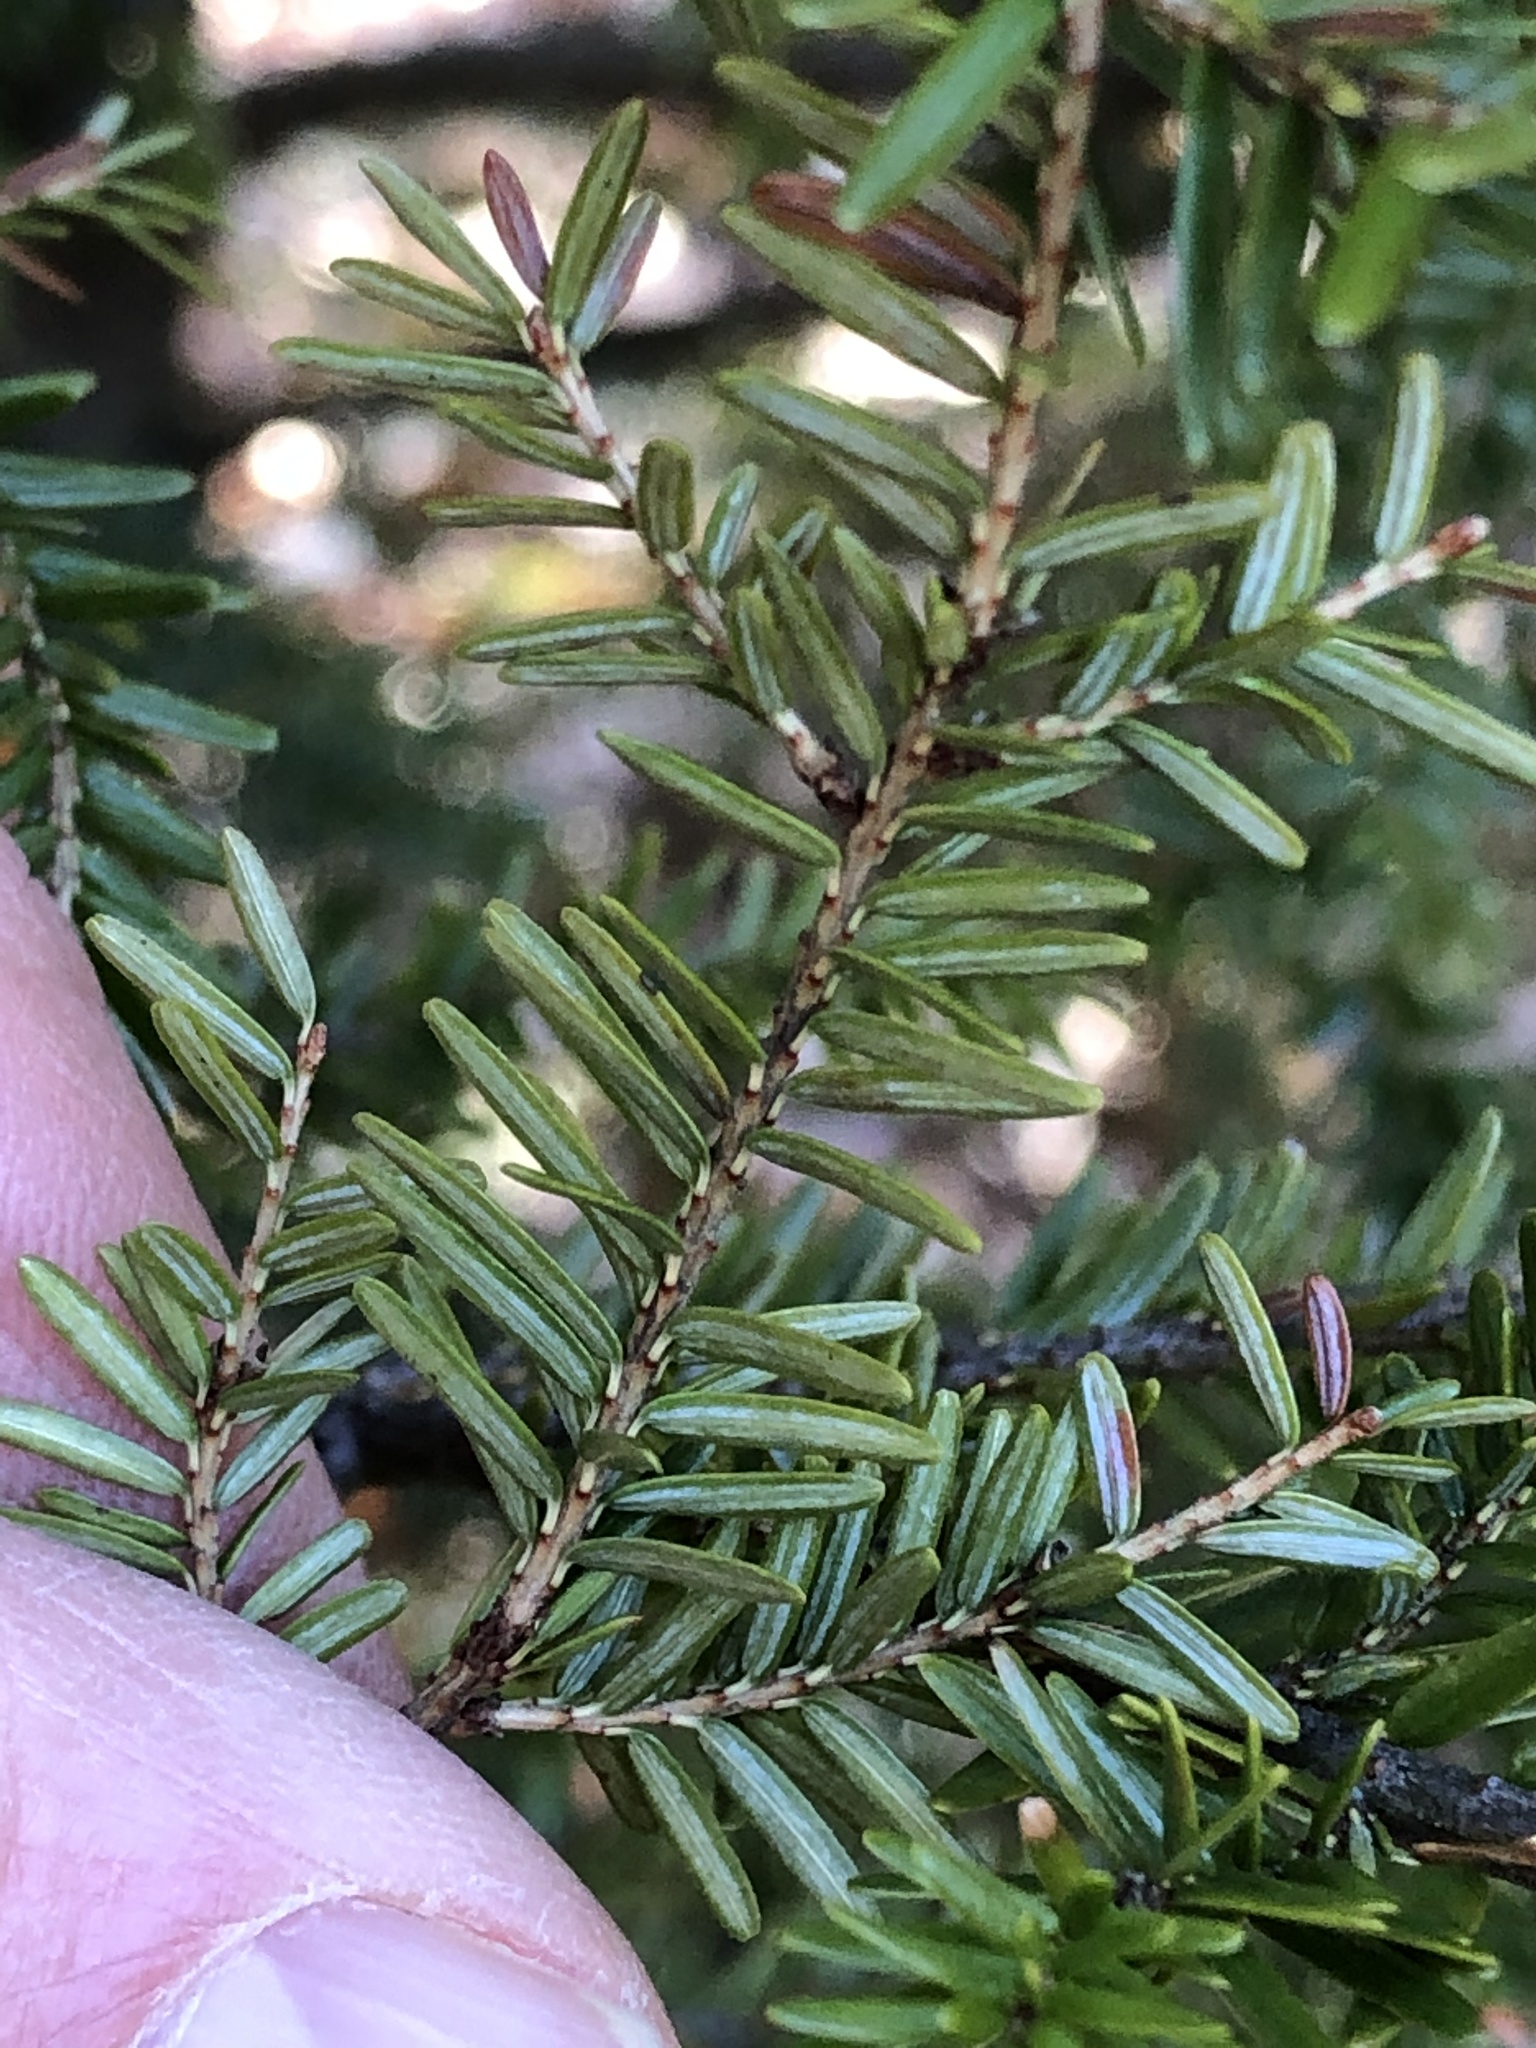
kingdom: Plantae
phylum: Tracheophyta
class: Pinopsida
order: Pinales
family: Pinaceae
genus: Tsuga
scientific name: Tsuga canadensis
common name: Eastern hemlock
